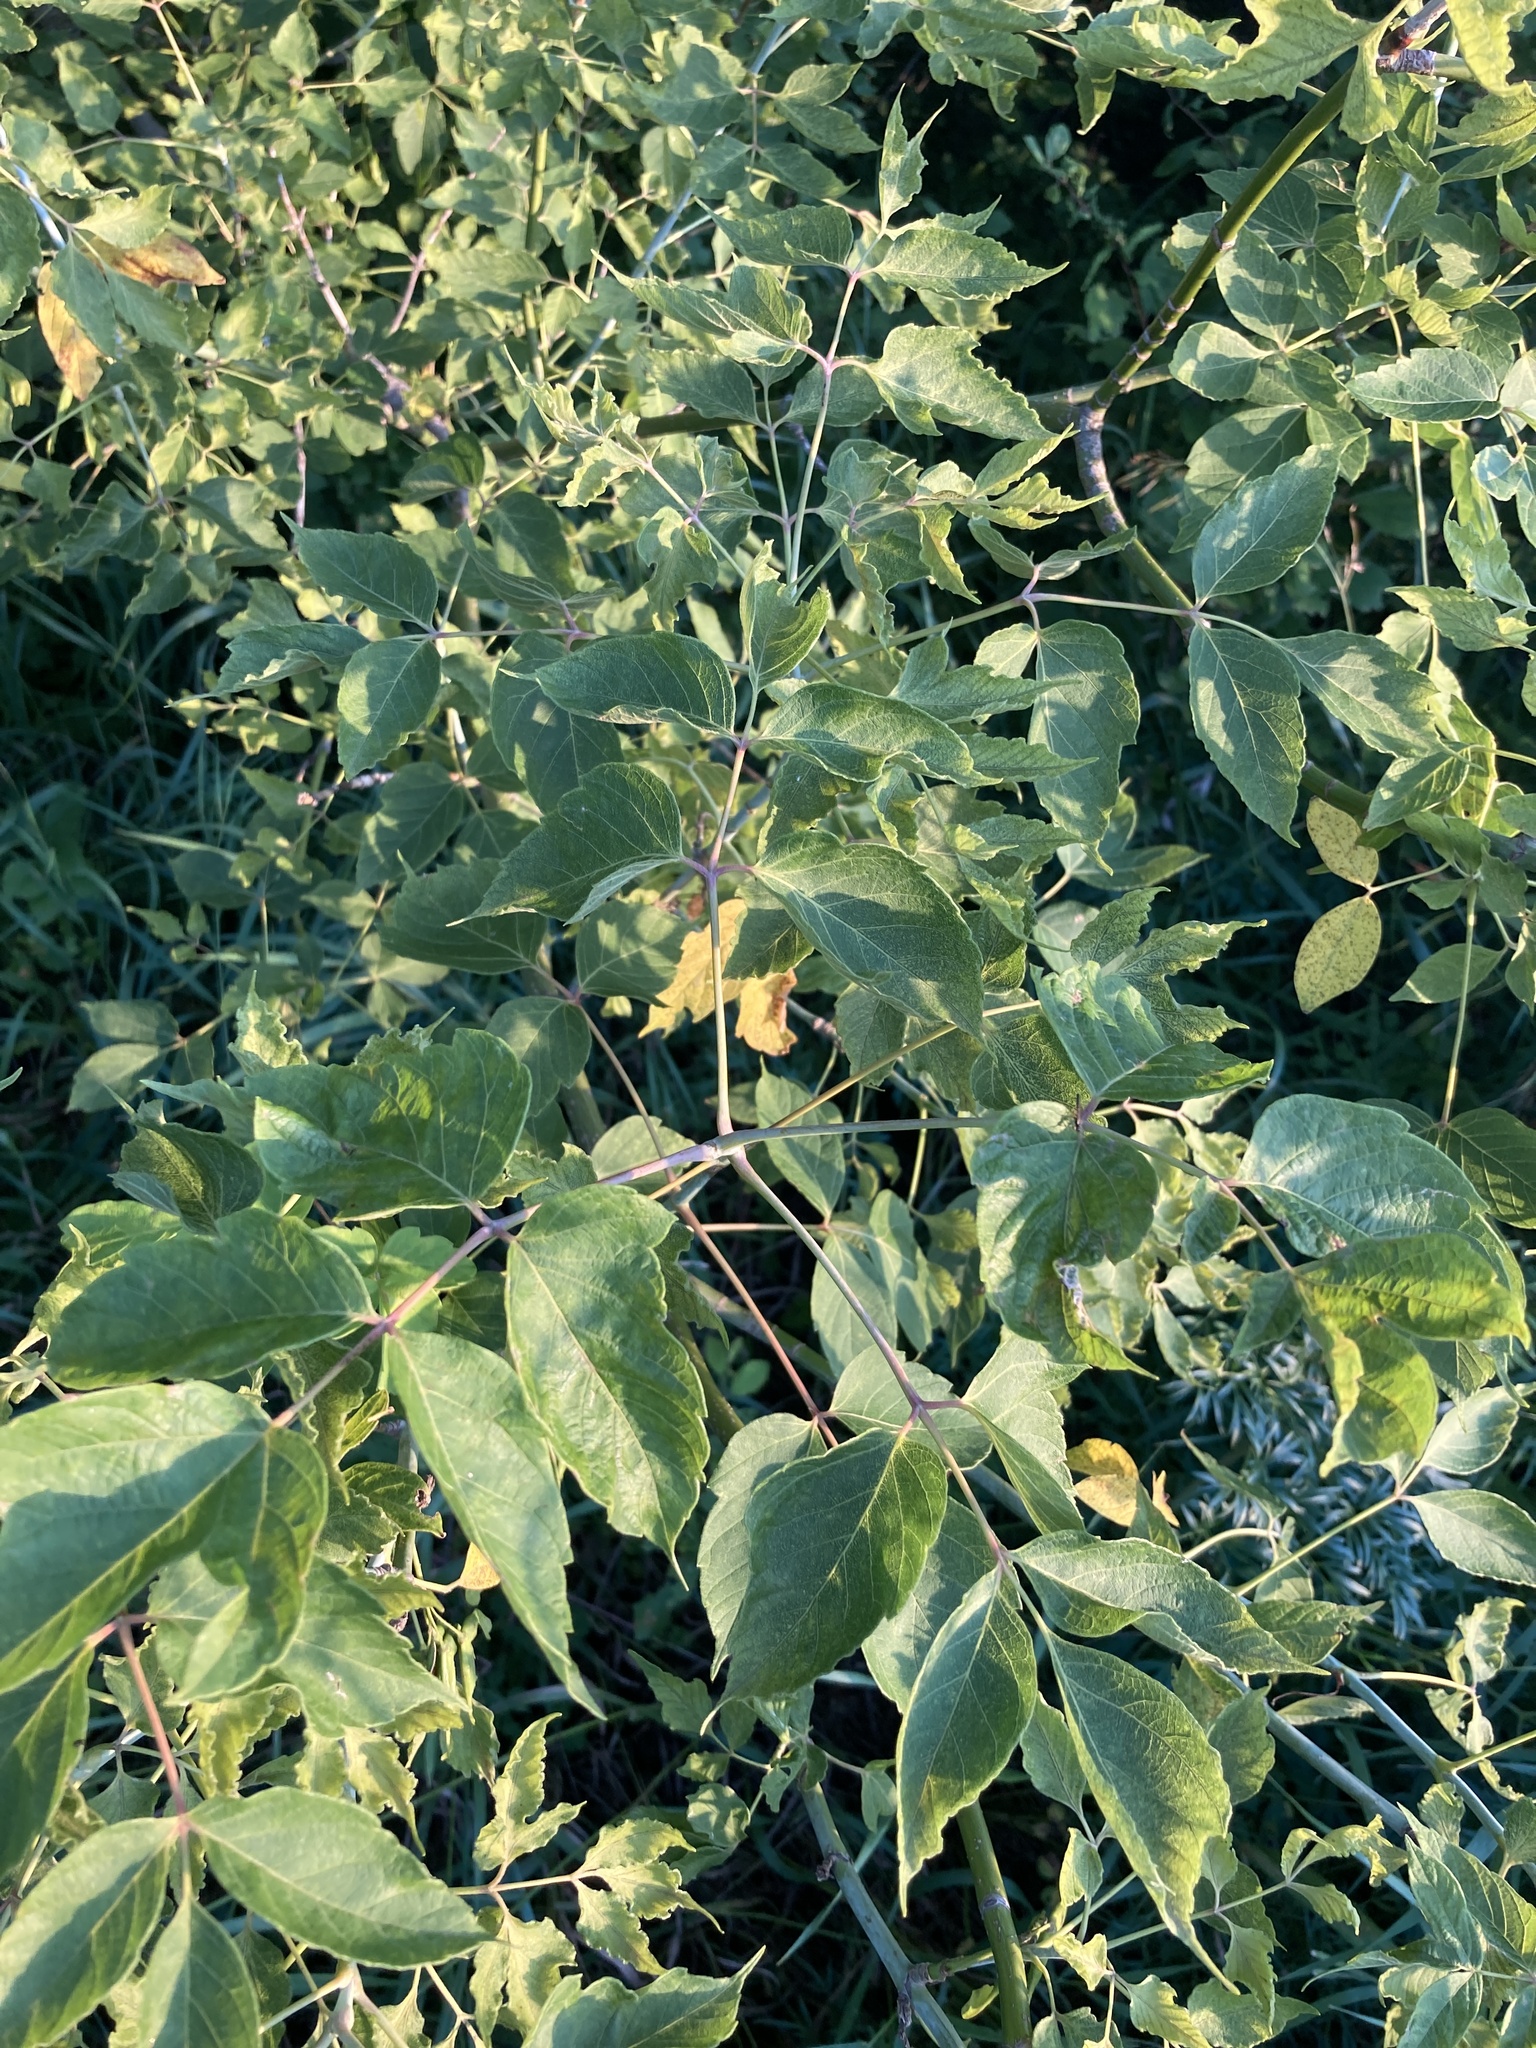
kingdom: Plantae
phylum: Tracheophyta
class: Magnoliopsida
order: Sapindales
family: Sapindaceae
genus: Acer
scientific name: Acer negundo
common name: Ashleaf maple
